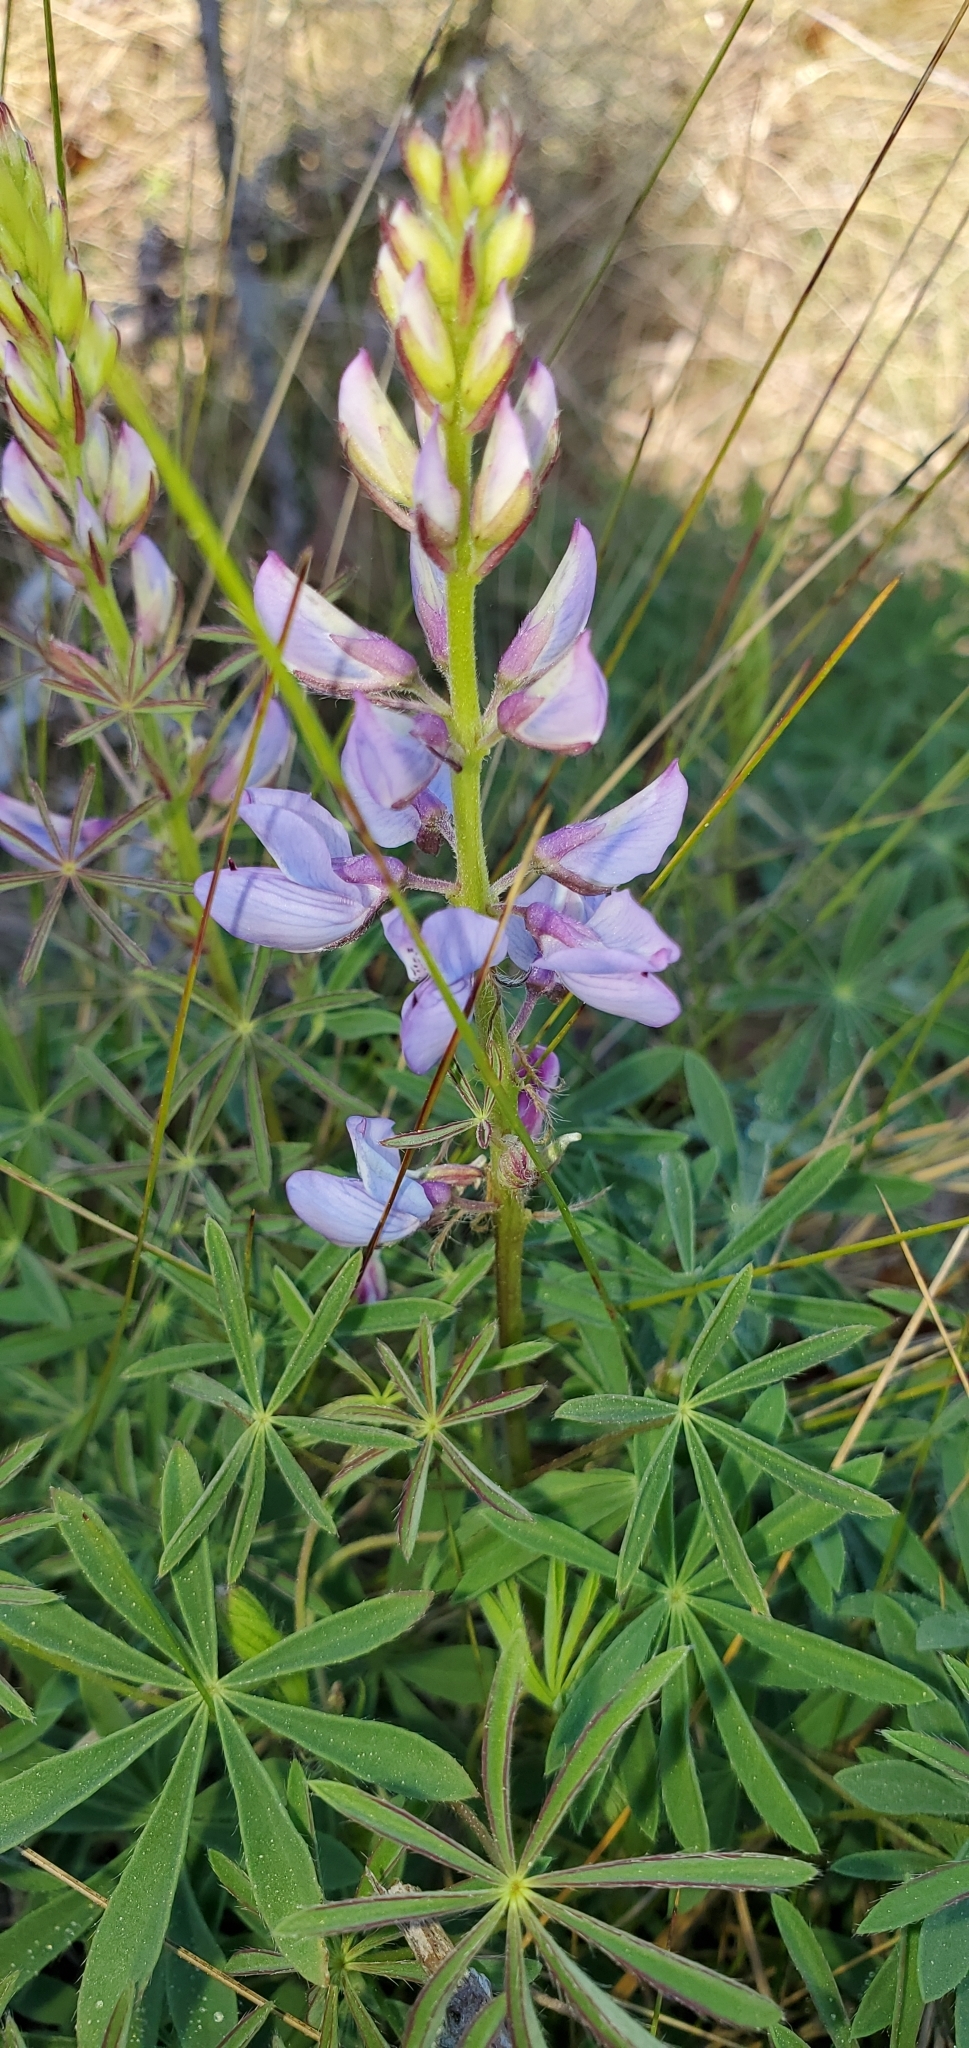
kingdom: Plantae
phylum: Tracheophyta
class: Magnoliopsida
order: Fabales
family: Fabaceae
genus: Lupinus
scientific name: Lupinus perennis
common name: Sundial lupine
